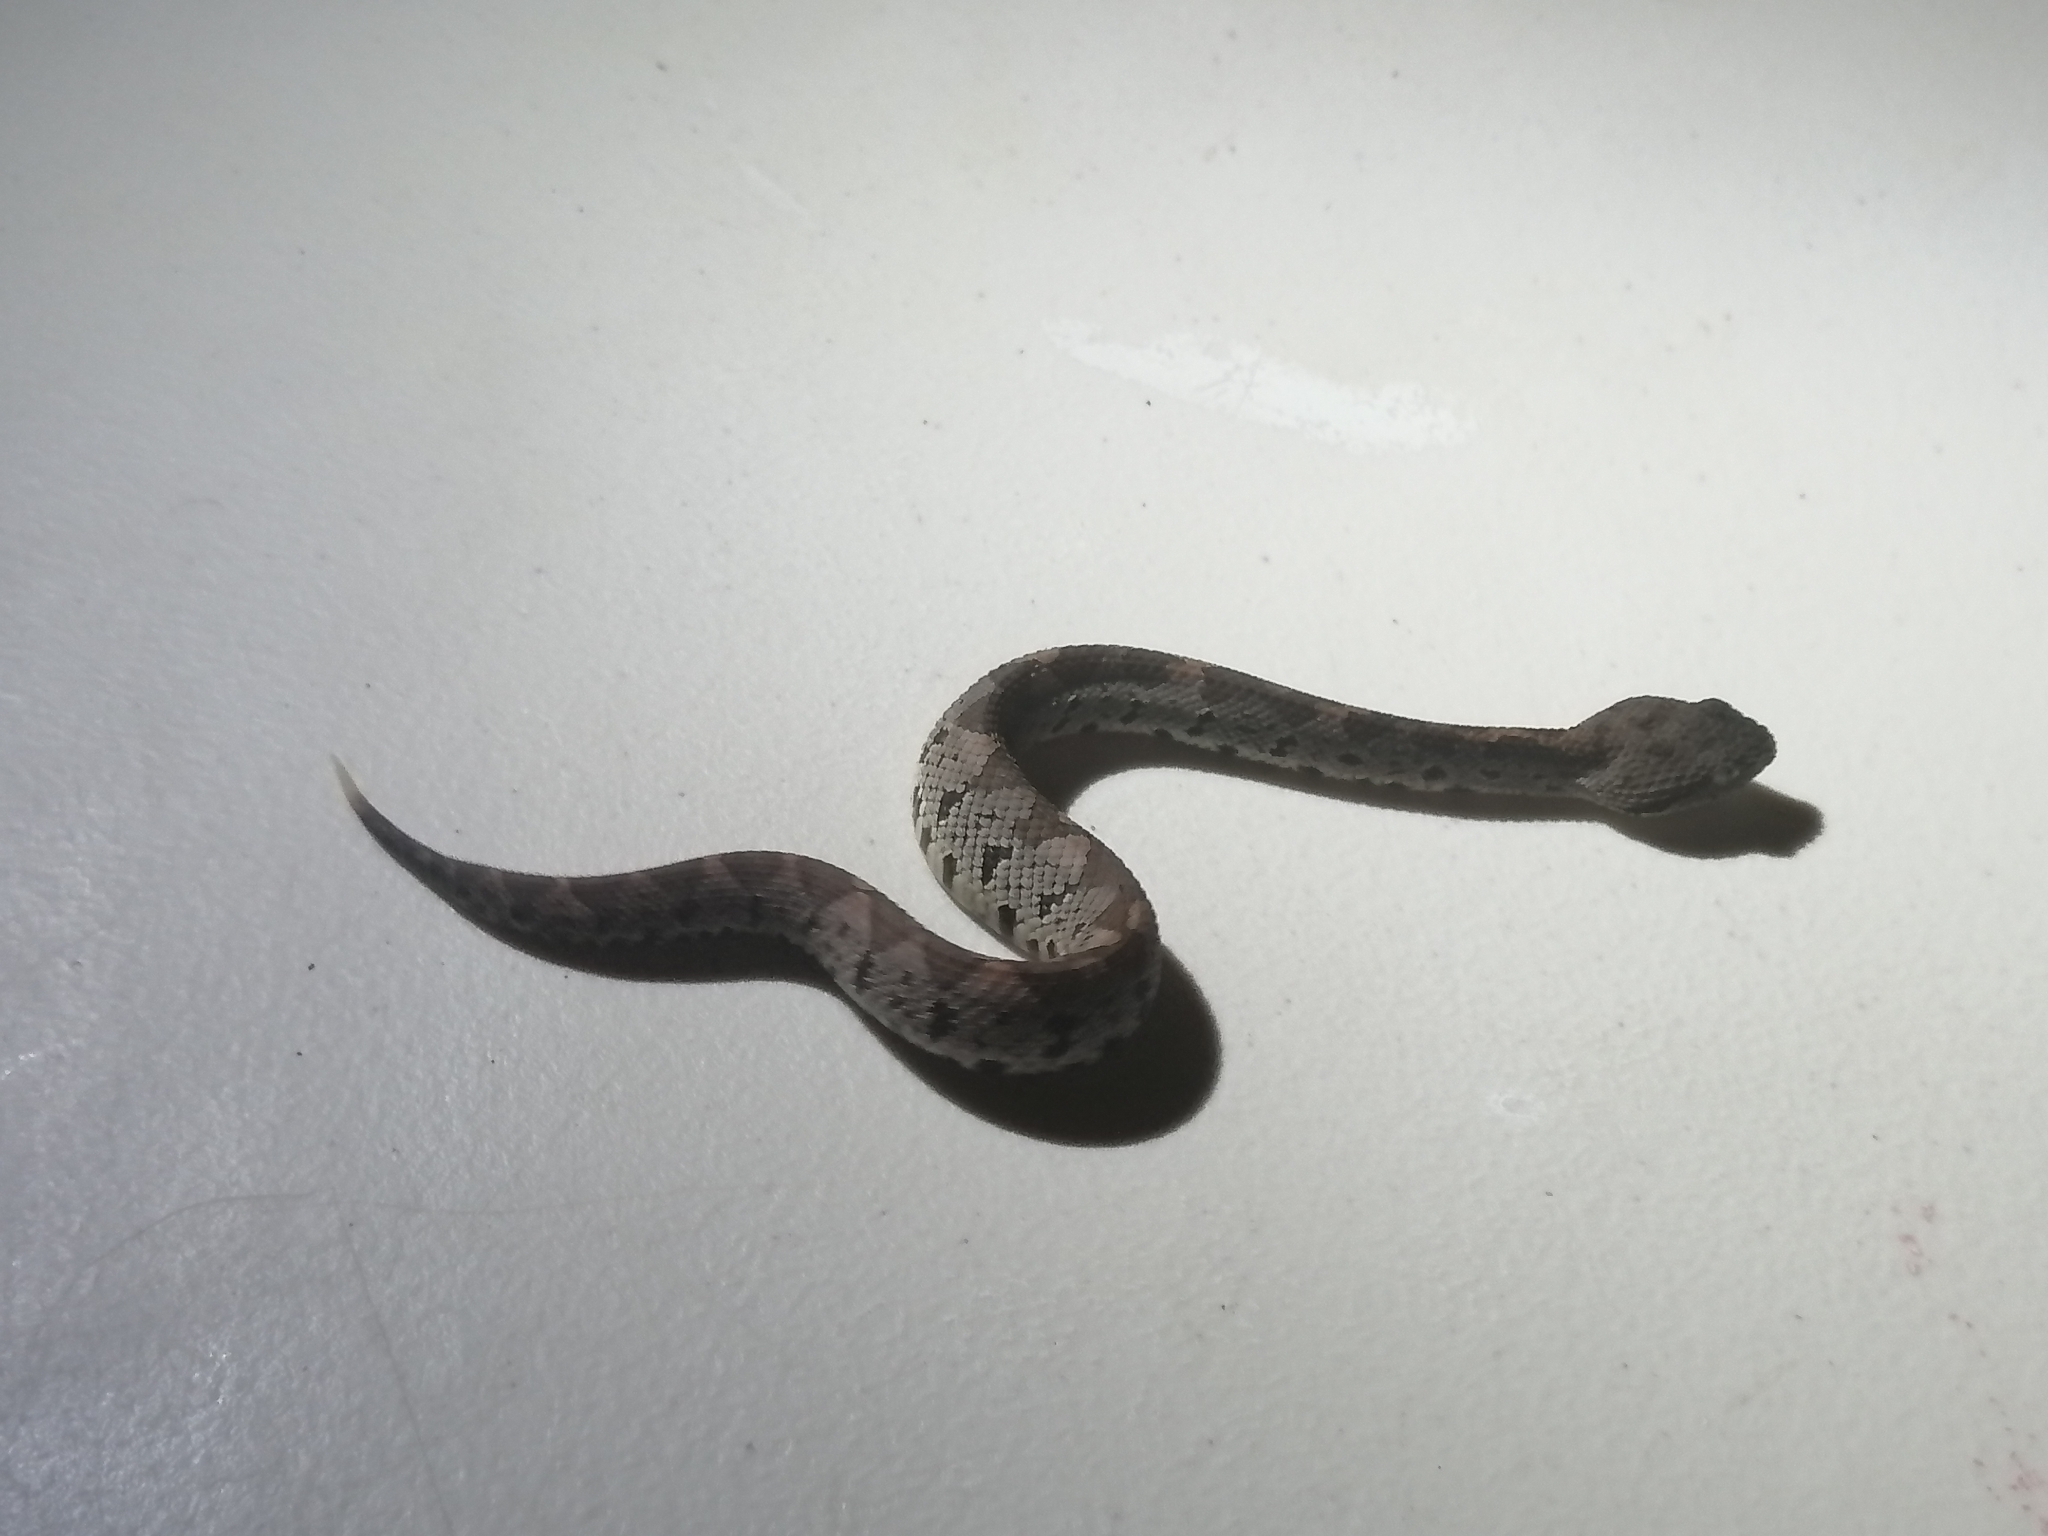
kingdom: Animalia
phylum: Chordata
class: Squamata
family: Viperidae
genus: Metlapilcoatlus
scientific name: Metlapilcoatlus mexicanus
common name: Central american jumping pit viper
